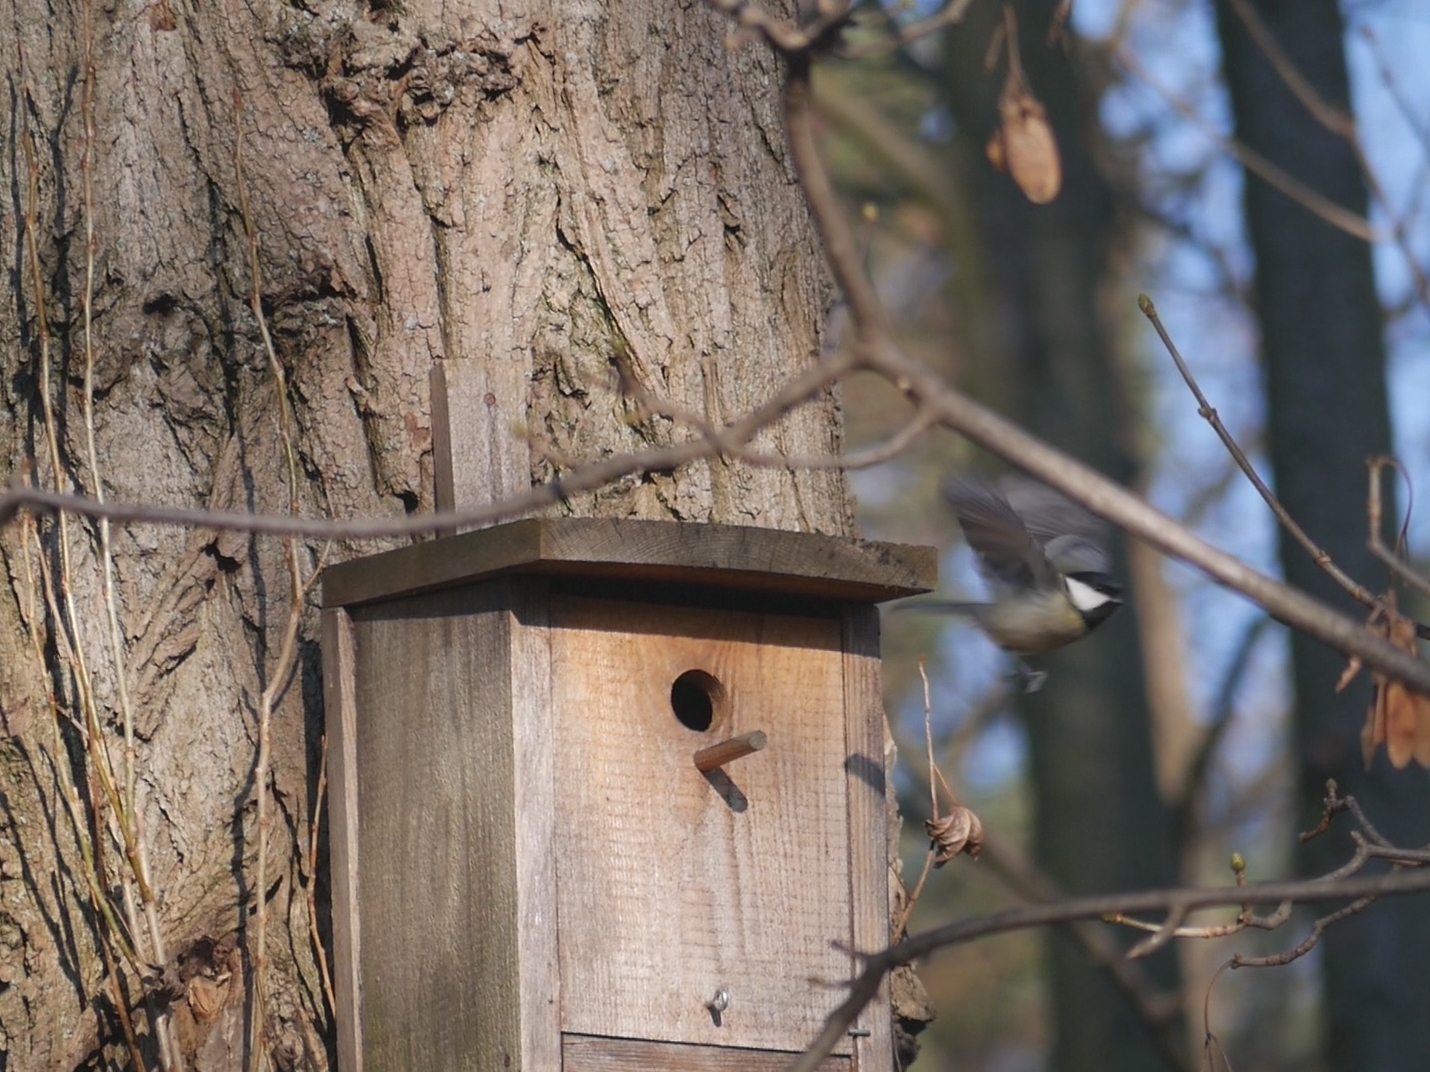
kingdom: Animalia
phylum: Chordata
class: Aves
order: Passeriformes
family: Paridae
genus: Parus
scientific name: Parus major
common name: Great tit
